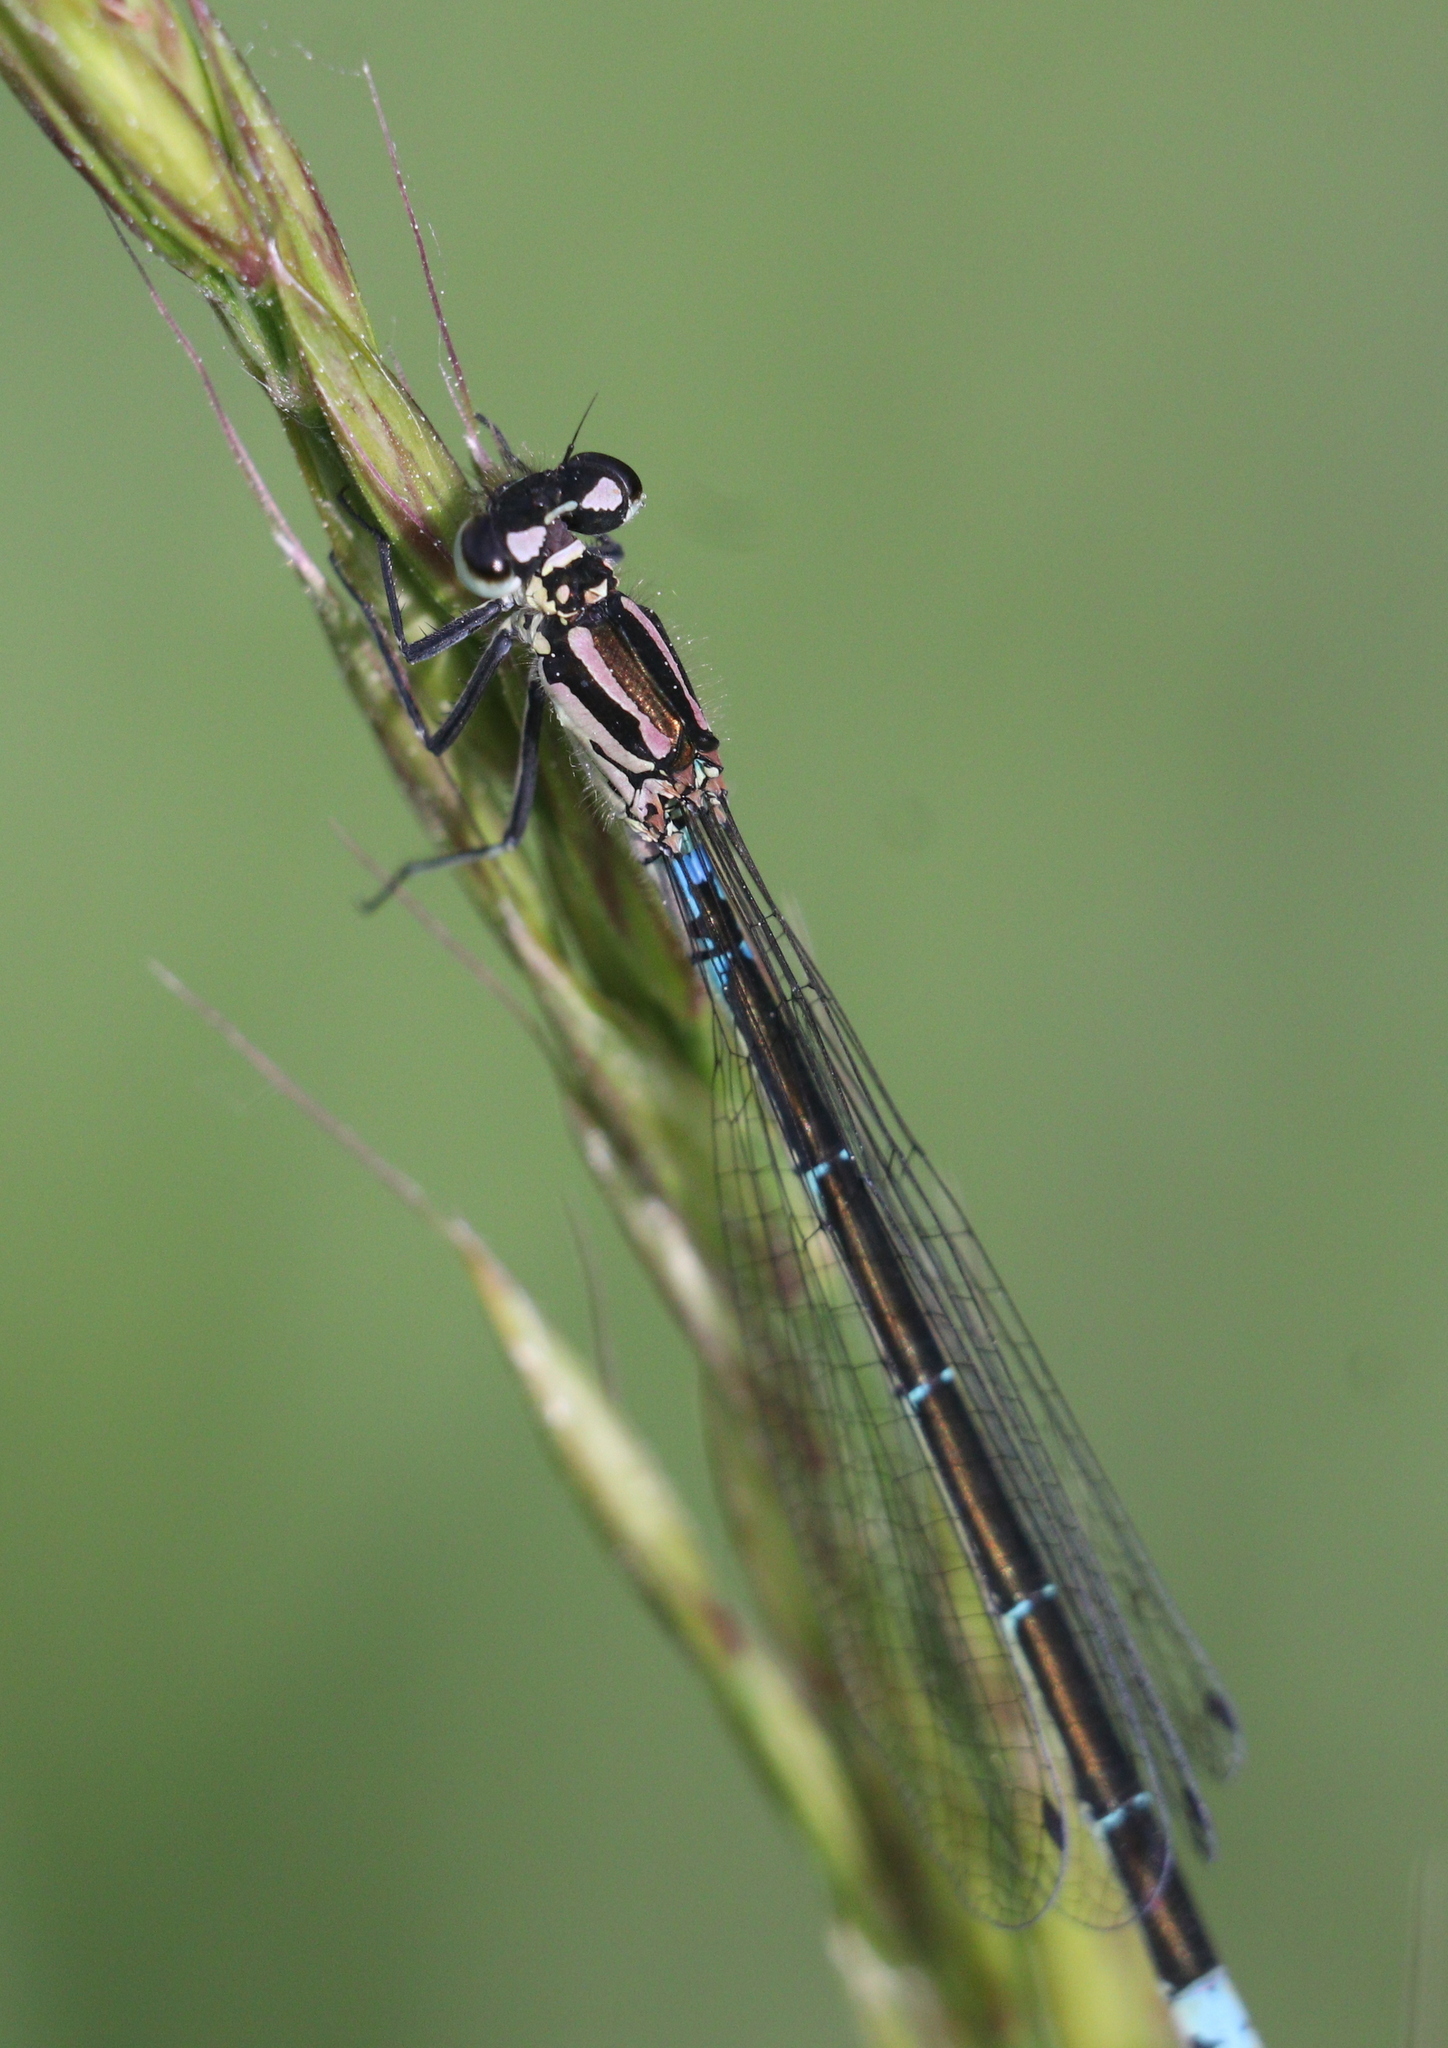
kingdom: Animalia
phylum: Arthropoda
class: Insecta
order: Odonata
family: Coenagrionidae
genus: Coenagrion
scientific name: Coenagrion pulchellum
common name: Variable bluet
